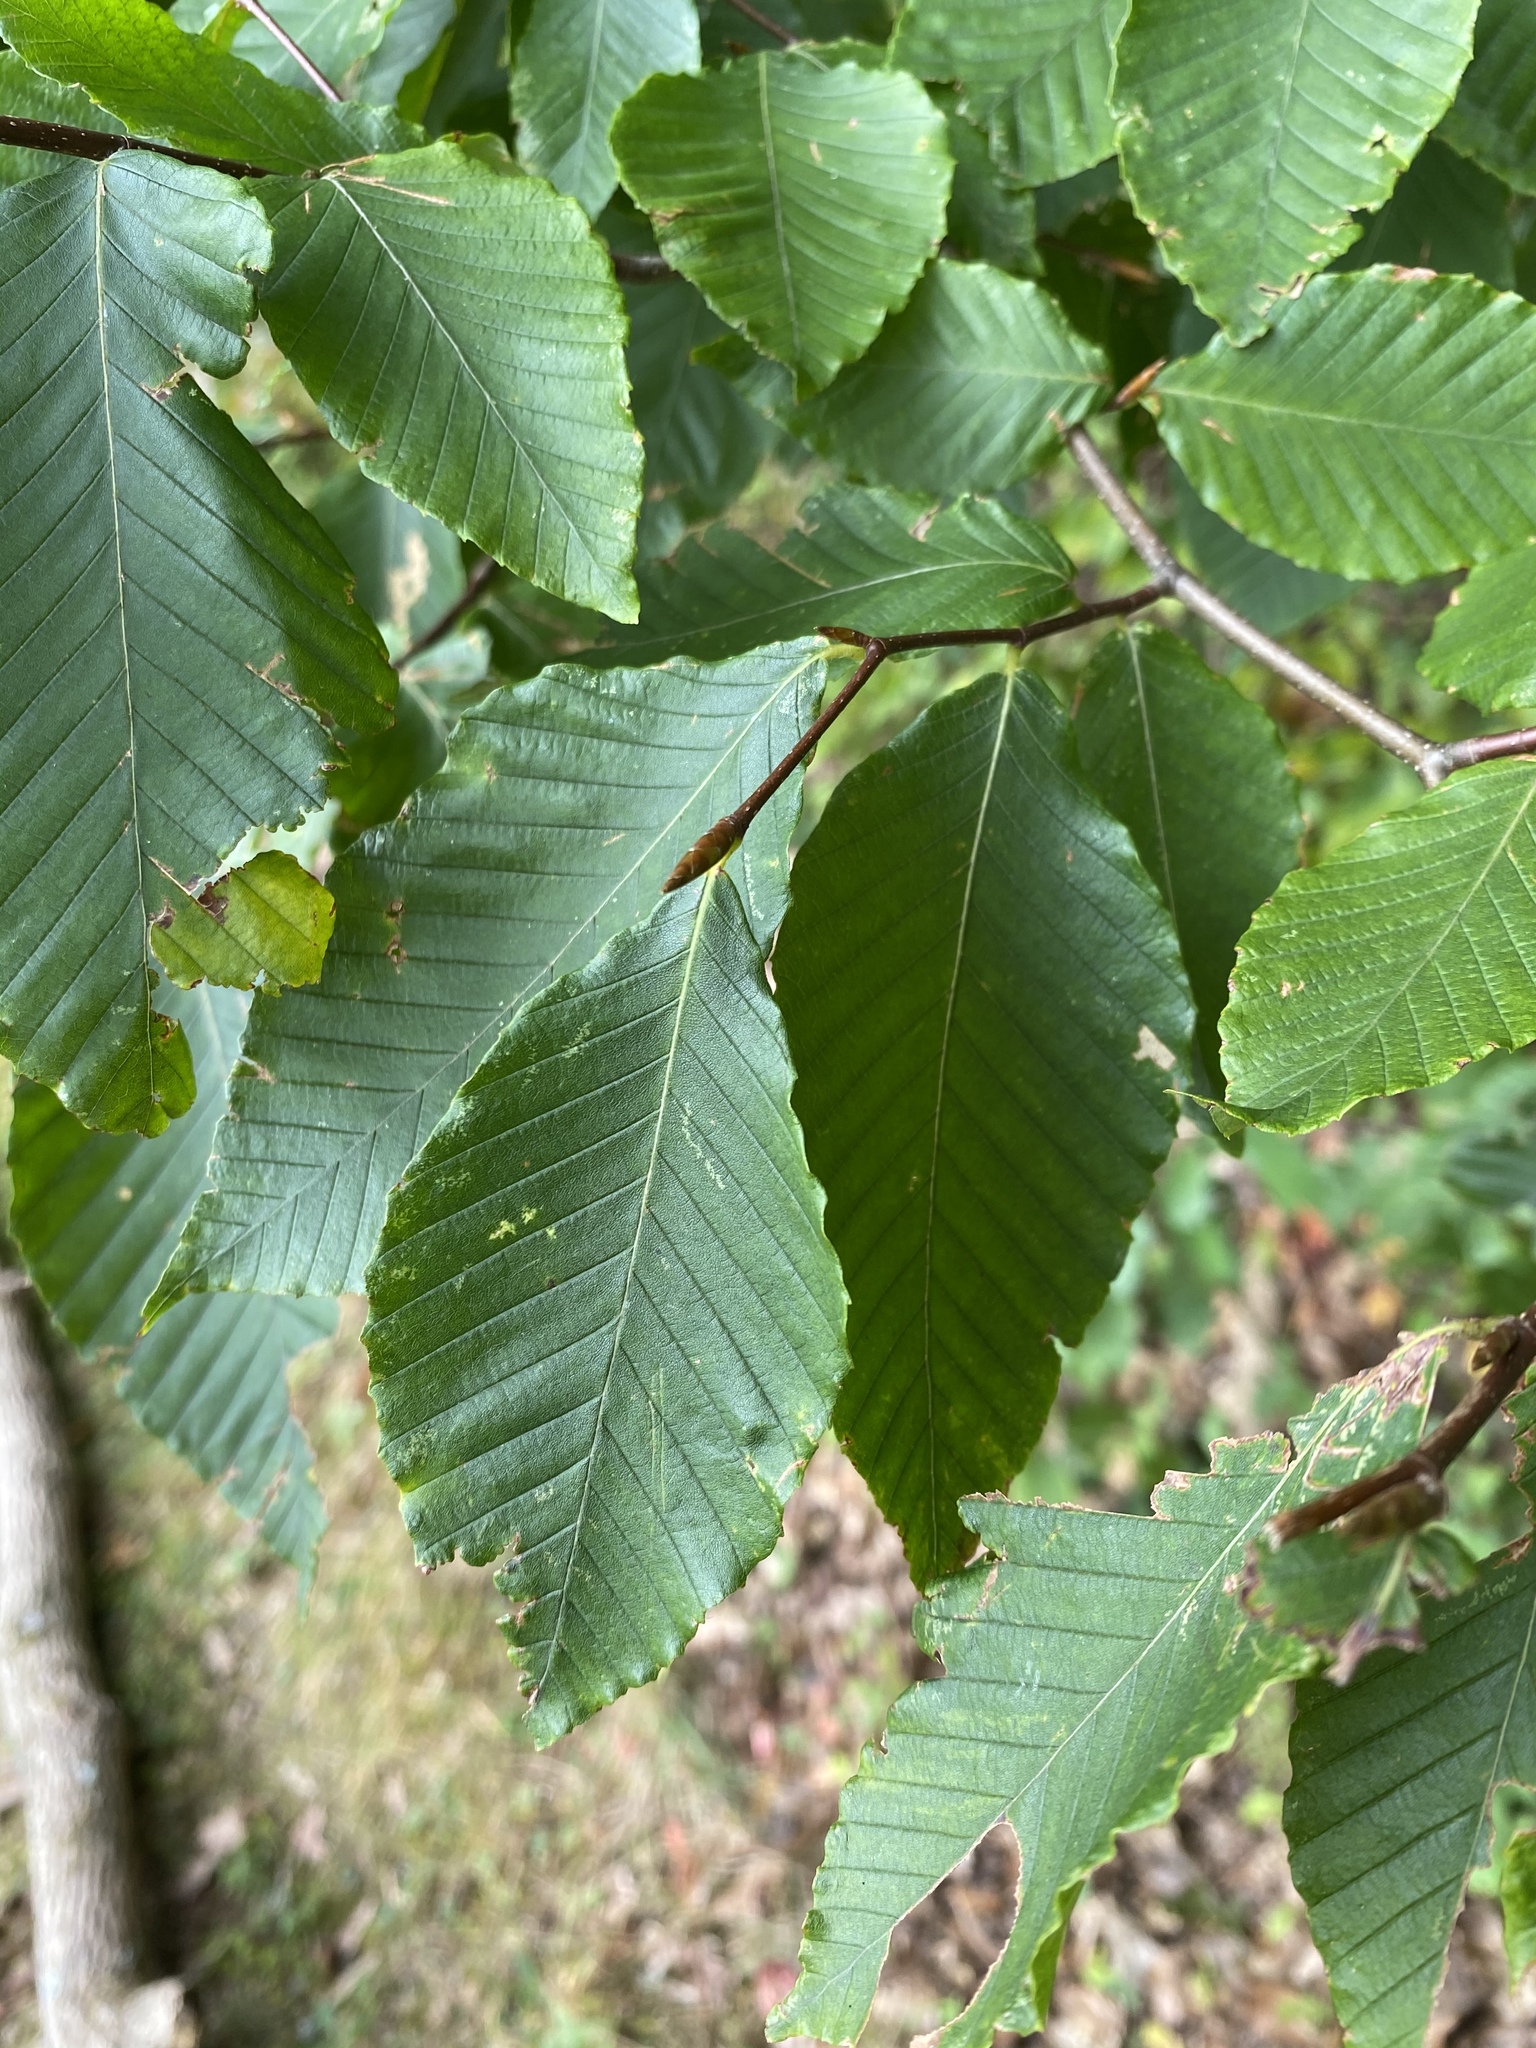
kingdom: Plantae
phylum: Tracheophyta
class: Magnoliopsida
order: Fagales
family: Fagaceae
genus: Fagus
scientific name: Fagus grandifolia
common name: American beech
